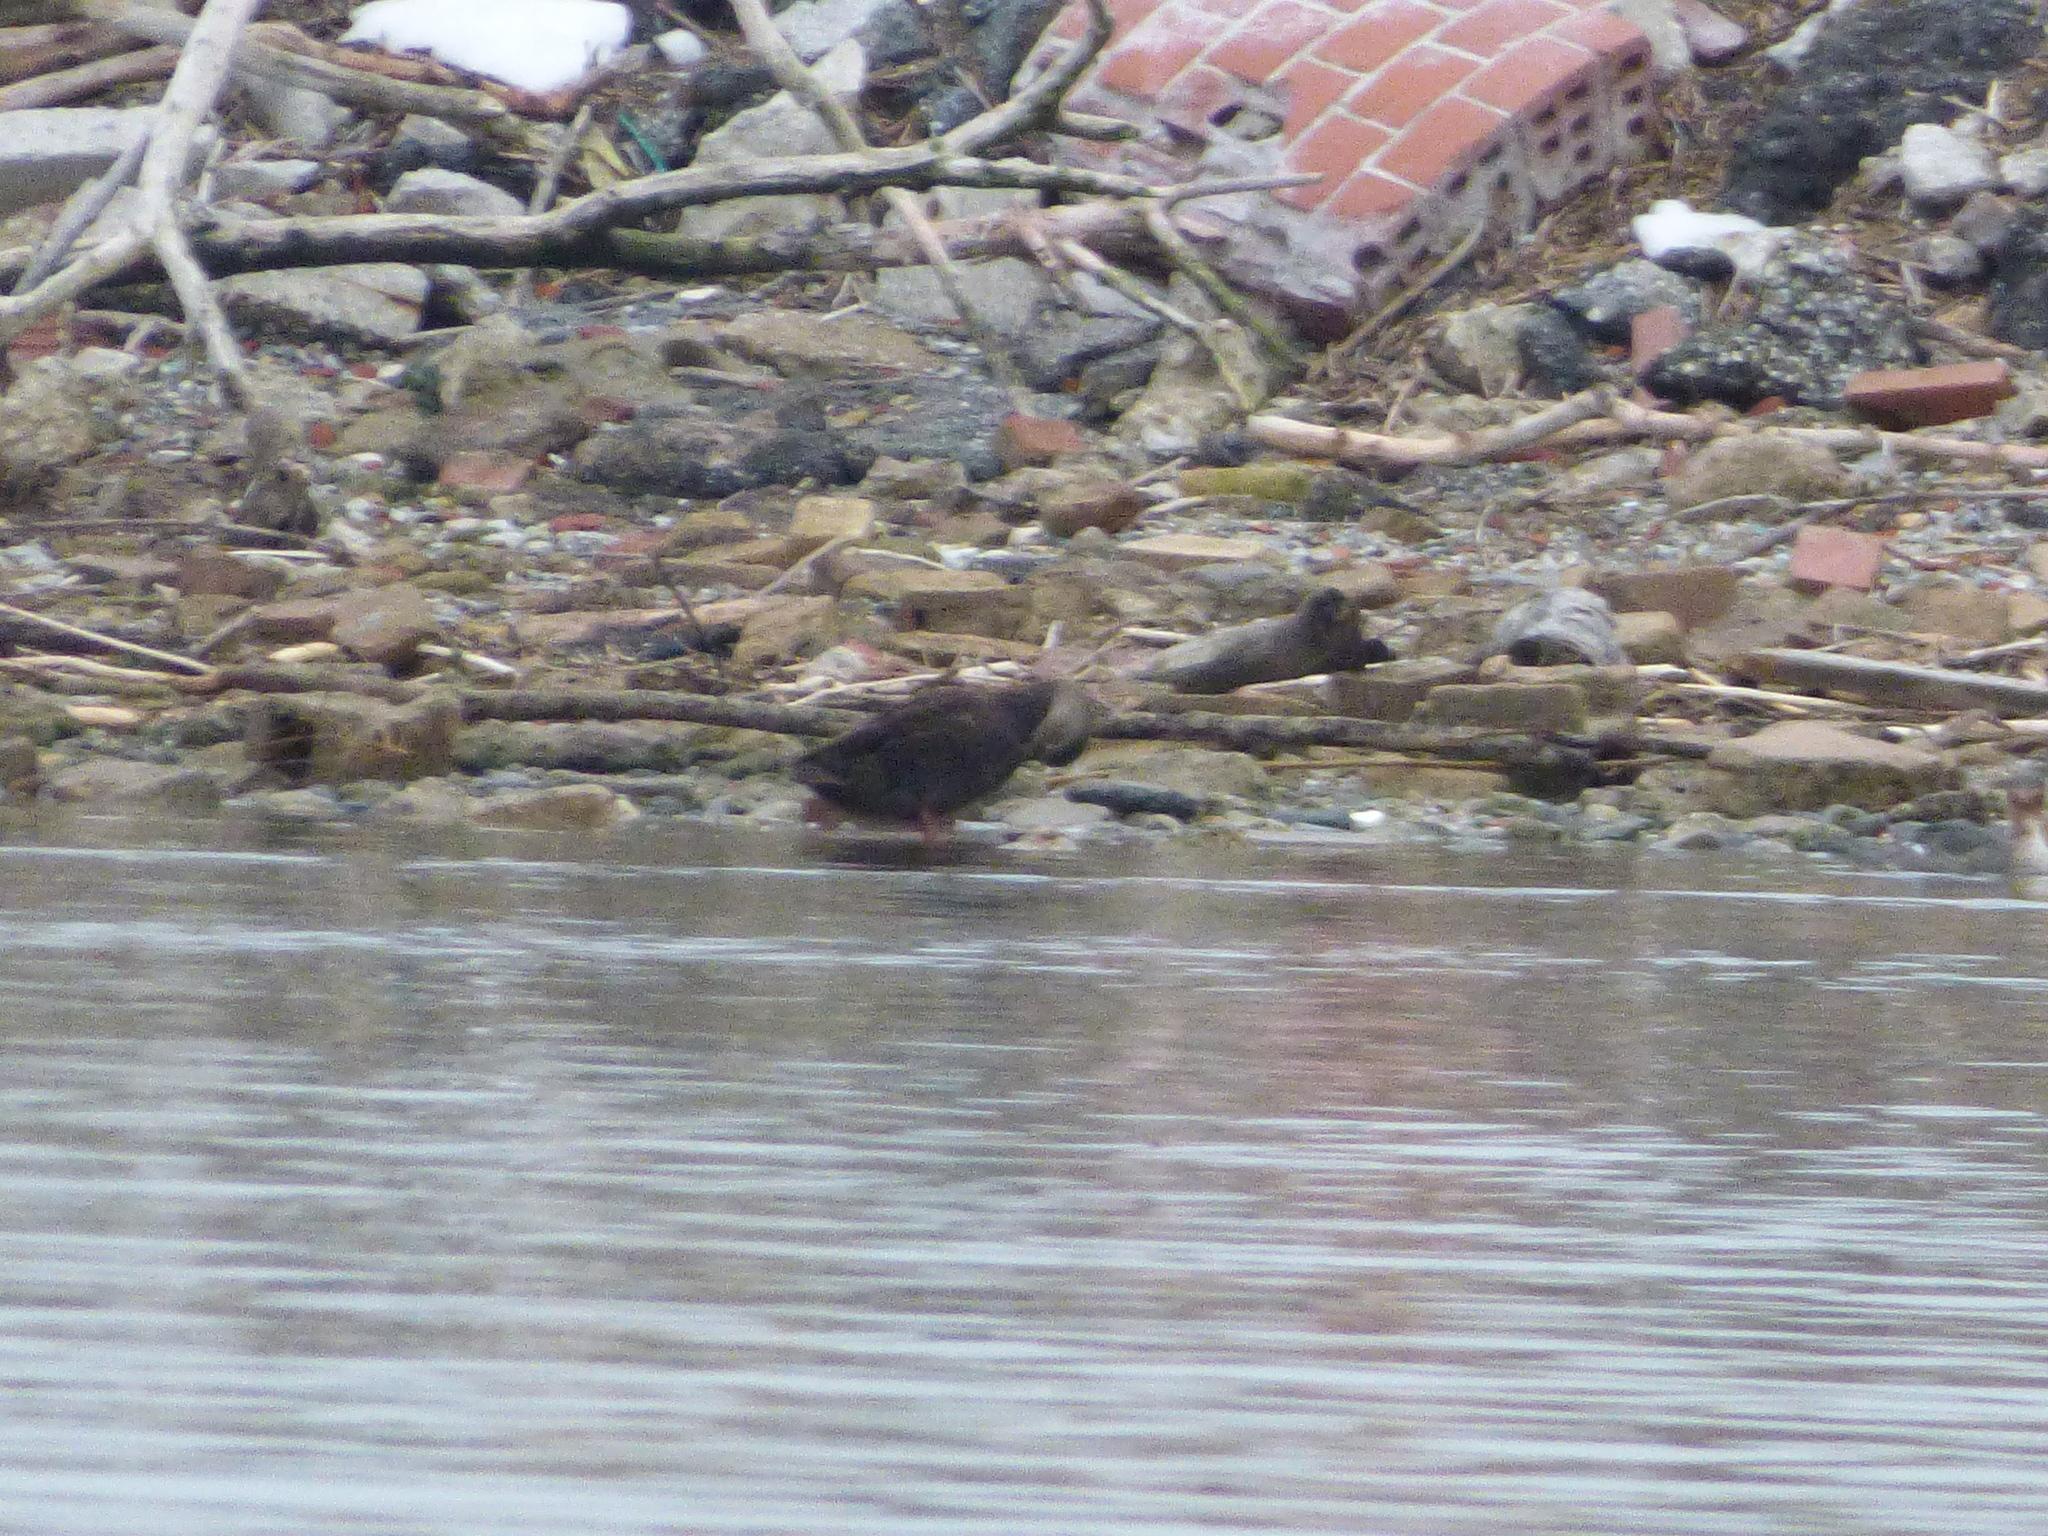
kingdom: Animalia
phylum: Chordata
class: Aves
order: Anseriformes
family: Anatidae
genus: Anas
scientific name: Anas rubripes
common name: American black duck
